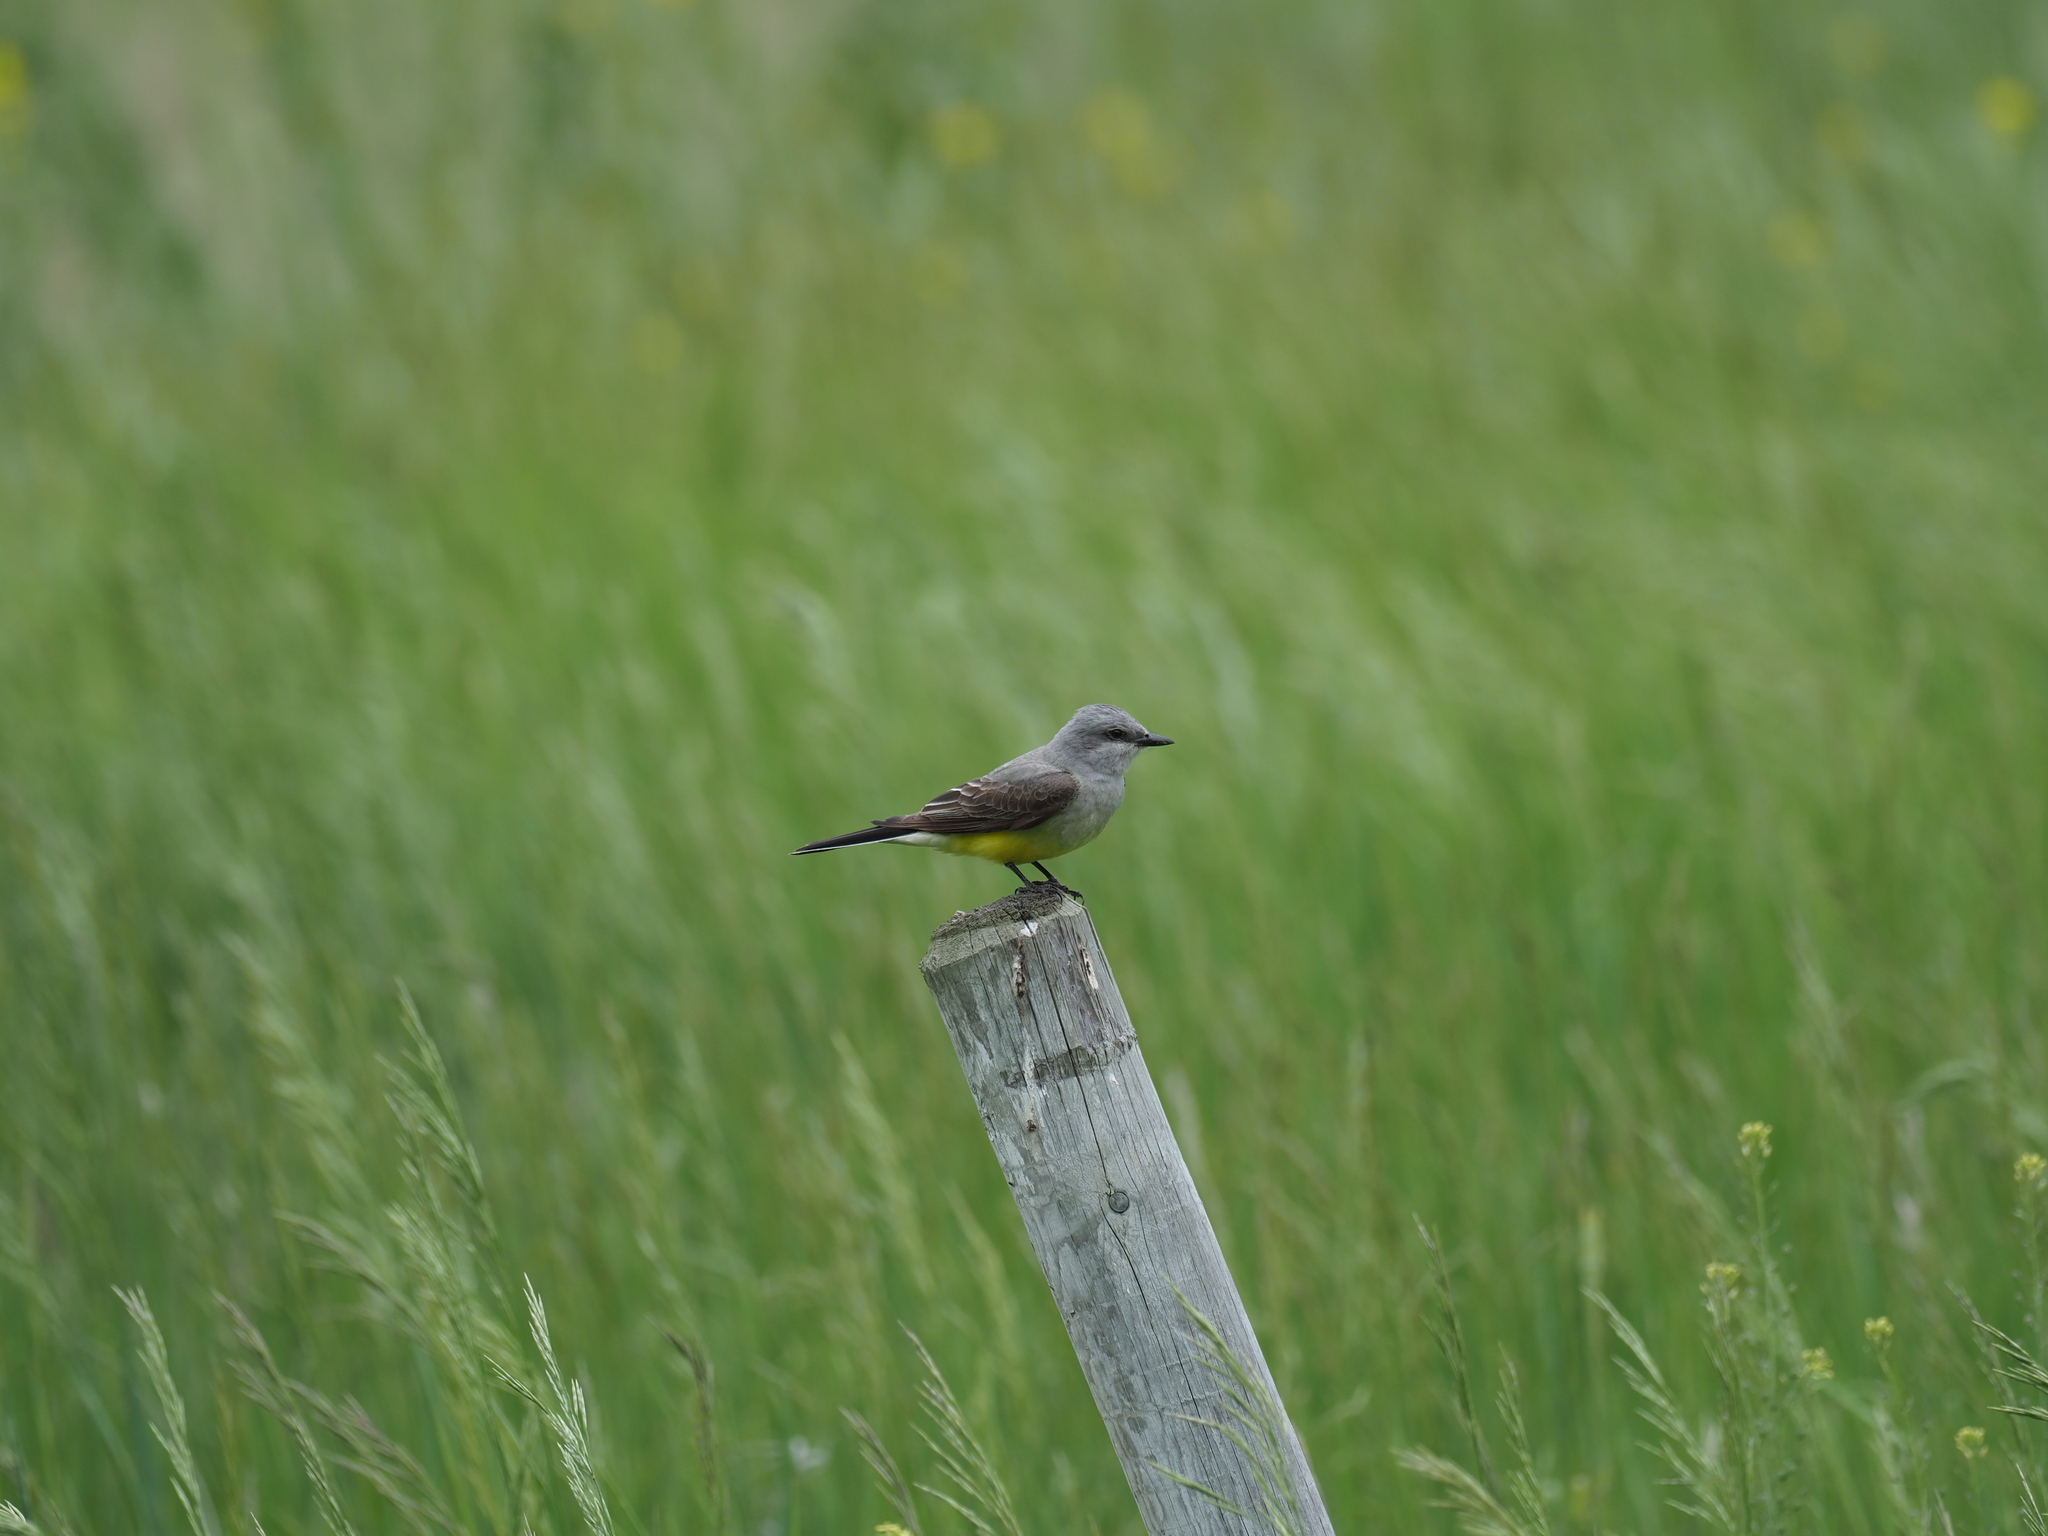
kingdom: Animalia
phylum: Chordata
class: Aves
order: Passeriformes
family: Tyrannidae
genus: Tyrannus
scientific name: Tyrannus verticalis
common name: Western kingbird
